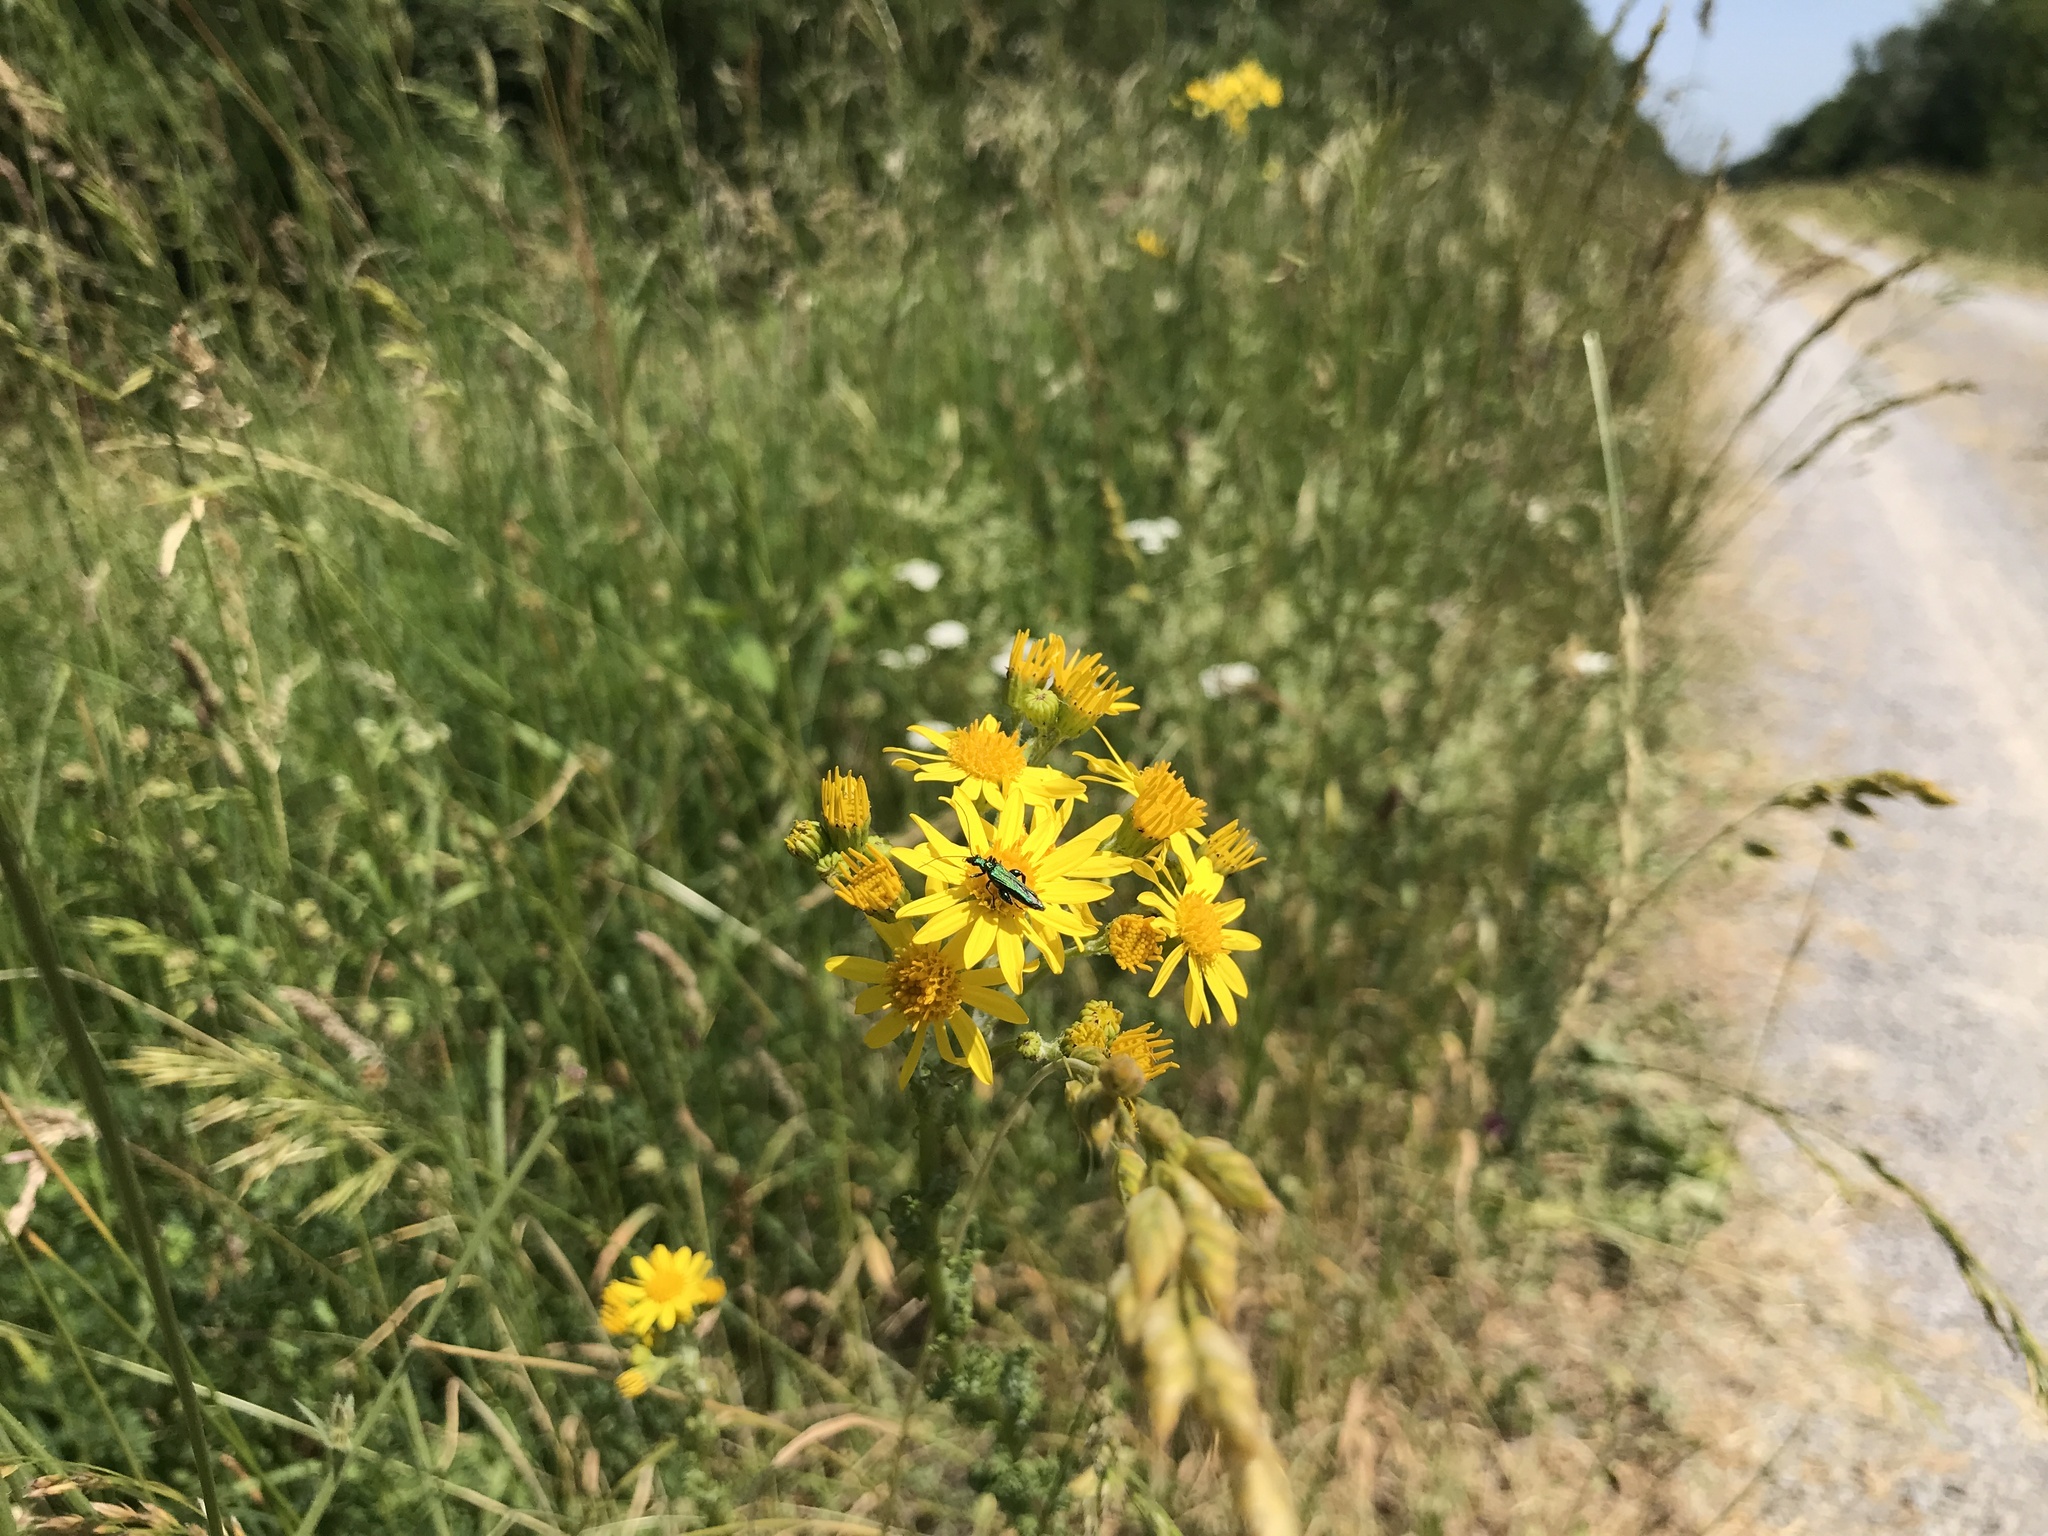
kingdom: Plantae
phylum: Tracheophyta
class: Magnoliopsida
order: Asterales
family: Asteraceae
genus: Jacobaea
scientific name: Jacobaea vulgaris
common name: Stinking willie
